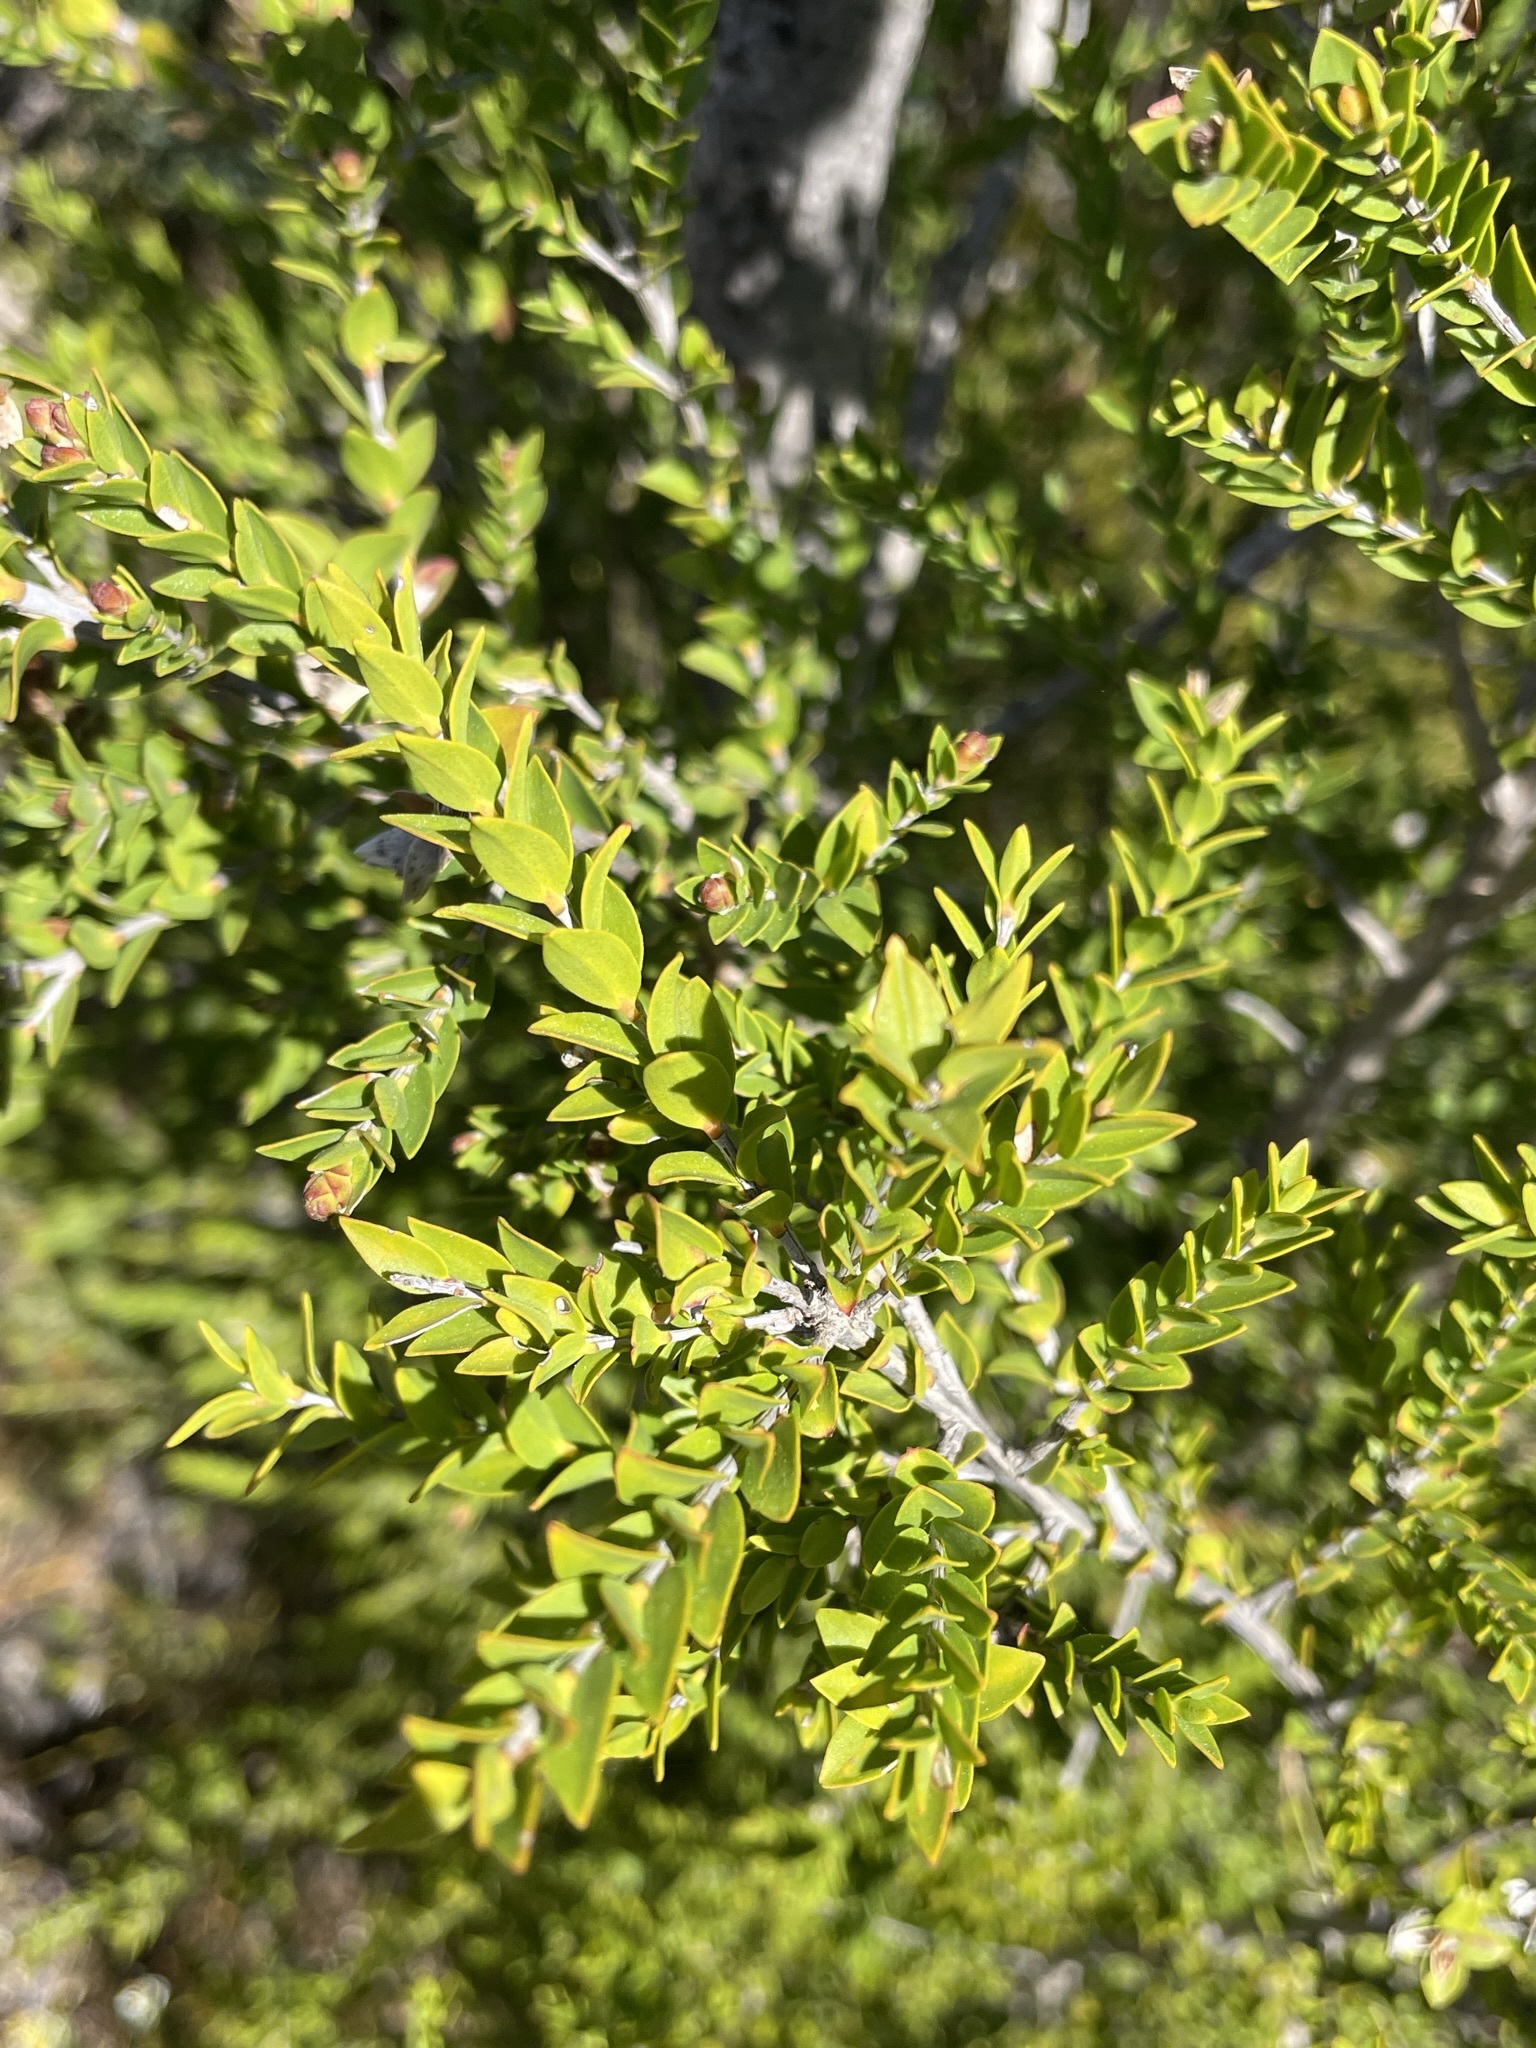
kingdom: Plantae
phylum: Tracheophyta
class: Magnoliopsida
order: Myrtales
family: Myrtaceae
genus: Melaleuca
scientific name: Melaleuca squarrosa
